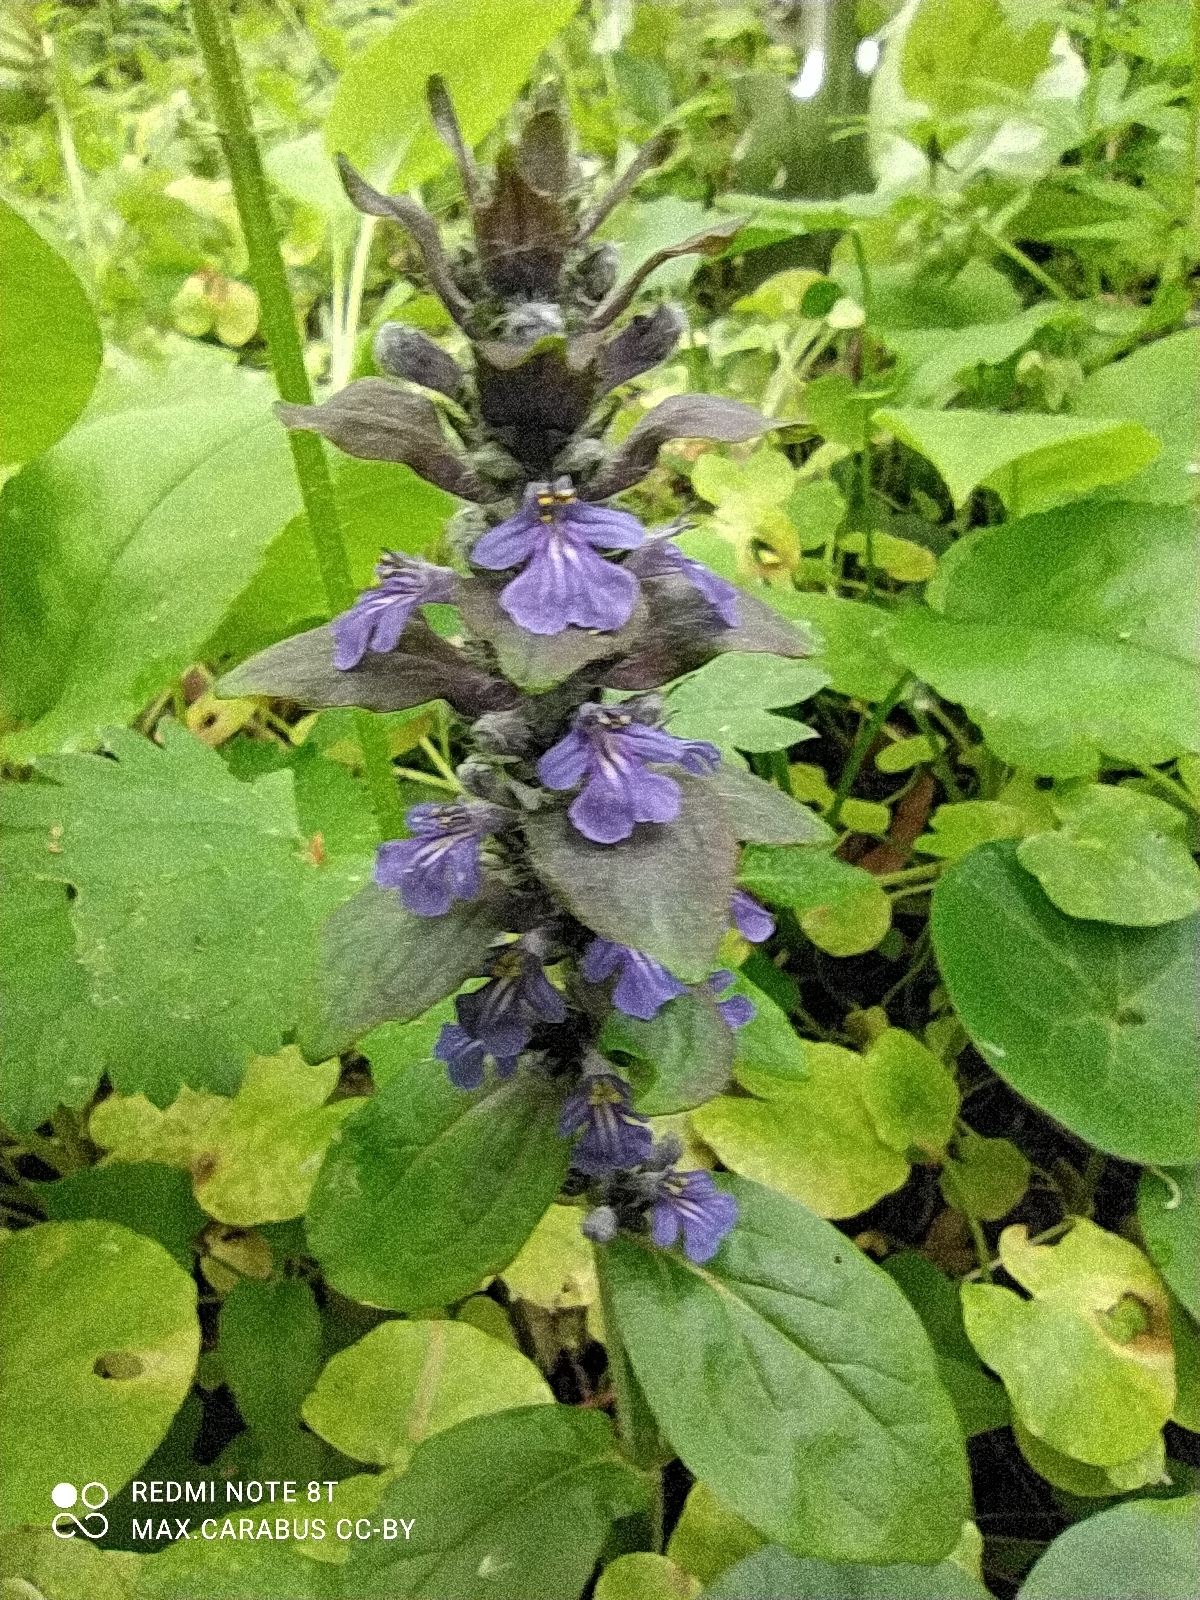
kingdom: Plantae
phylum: Tracheophyta
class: Magnoliopsida
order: Lamiales
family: Lamiaceae
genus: Ajuga
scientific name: Ajuga reptans
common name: Bugle
